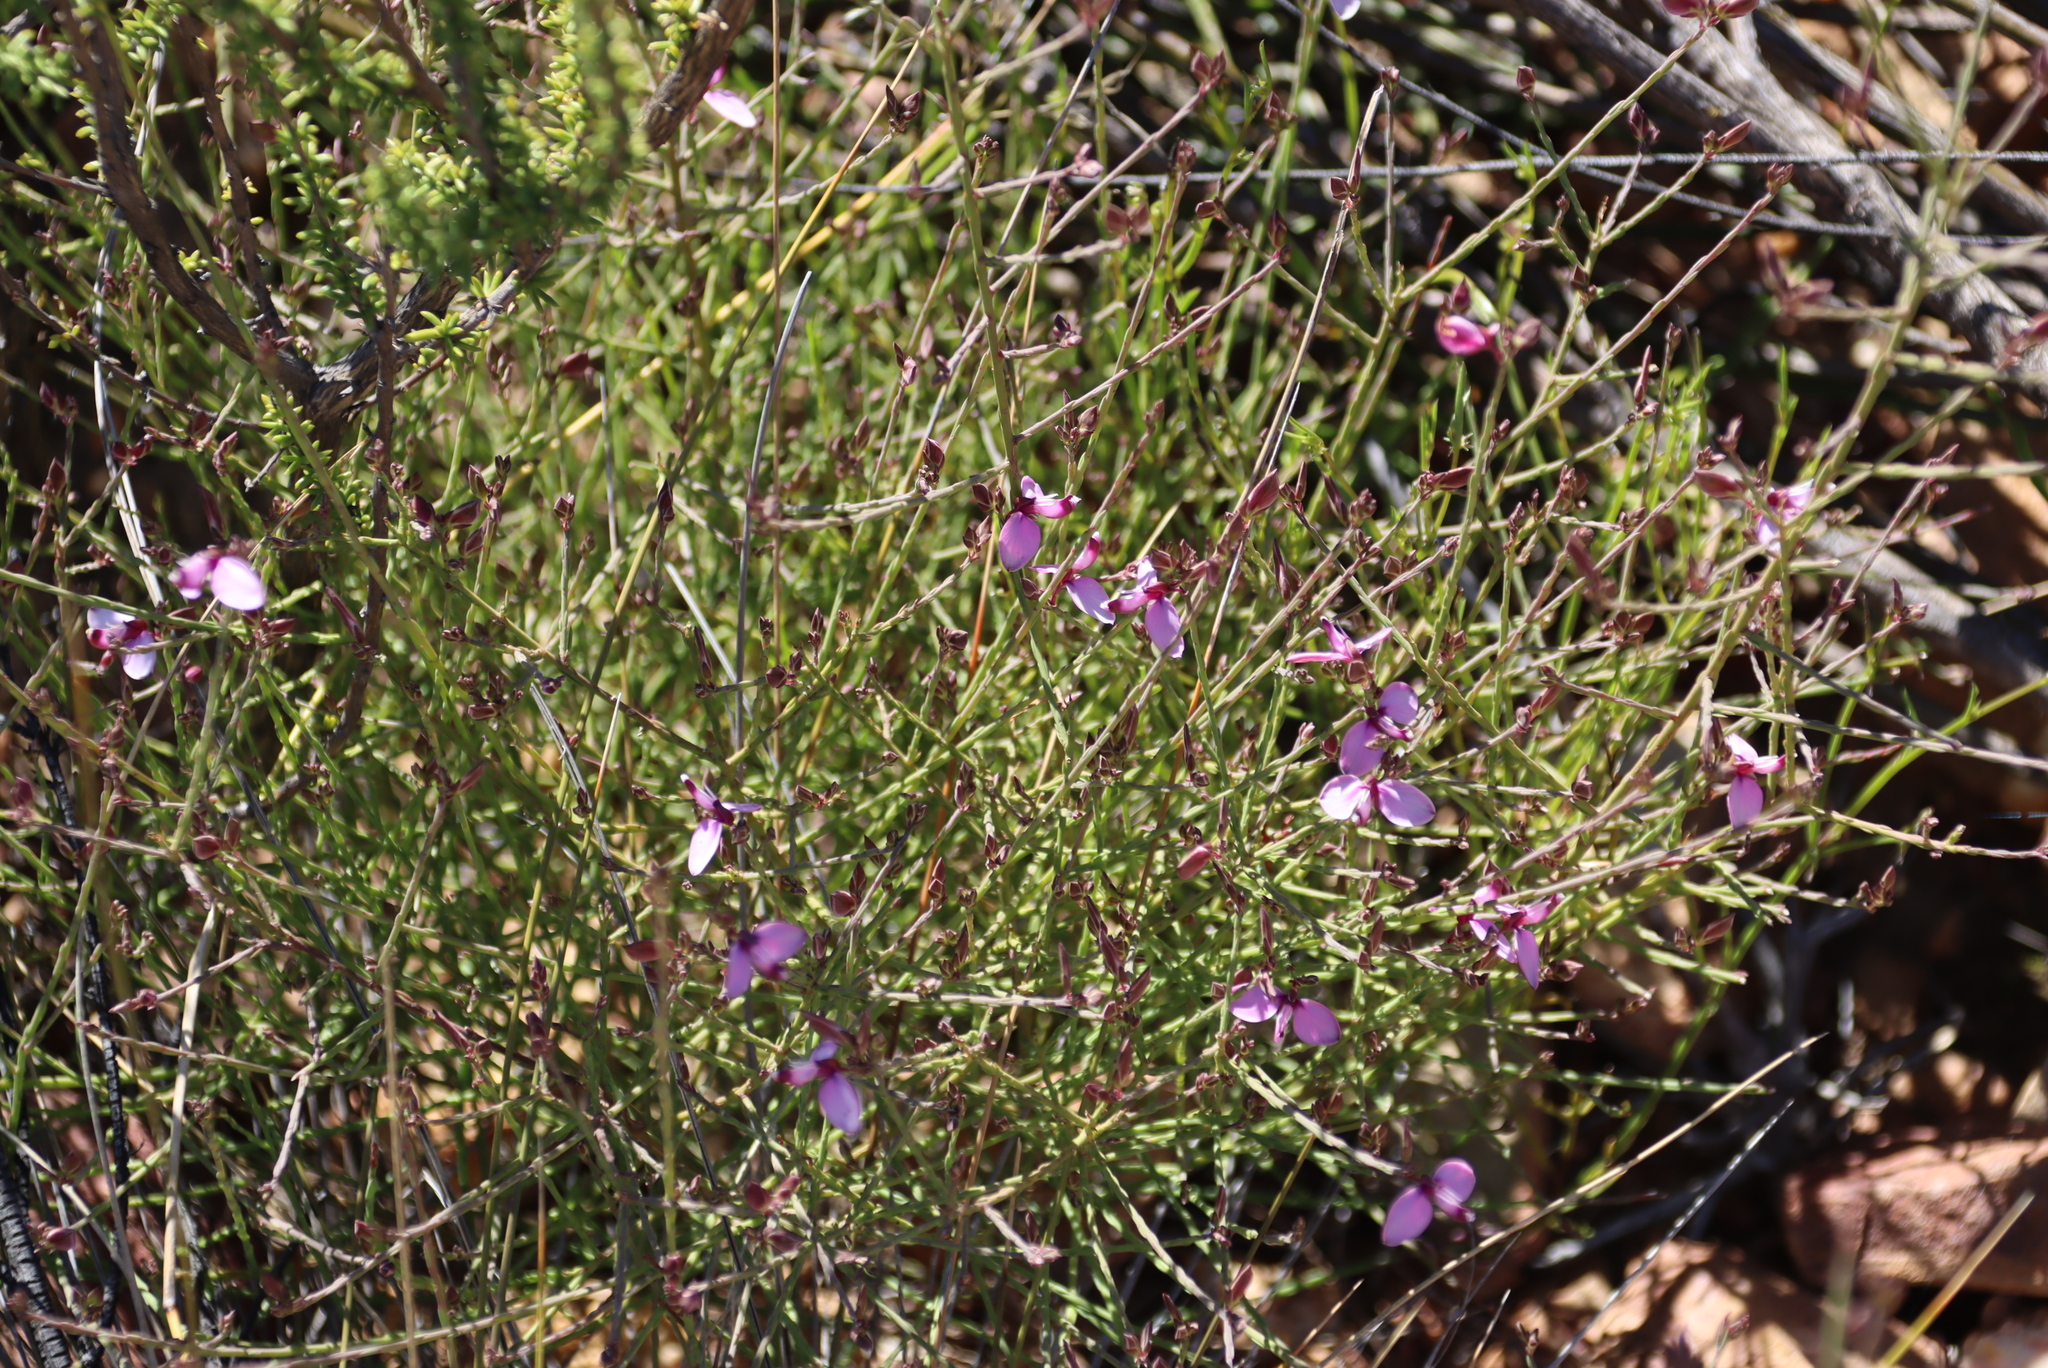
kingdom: Plantae
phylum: Tracheophyta
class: Magnoliopsida
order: Fabales
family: Polygalaceae
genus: Polygala
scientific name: Polygala microlopha
